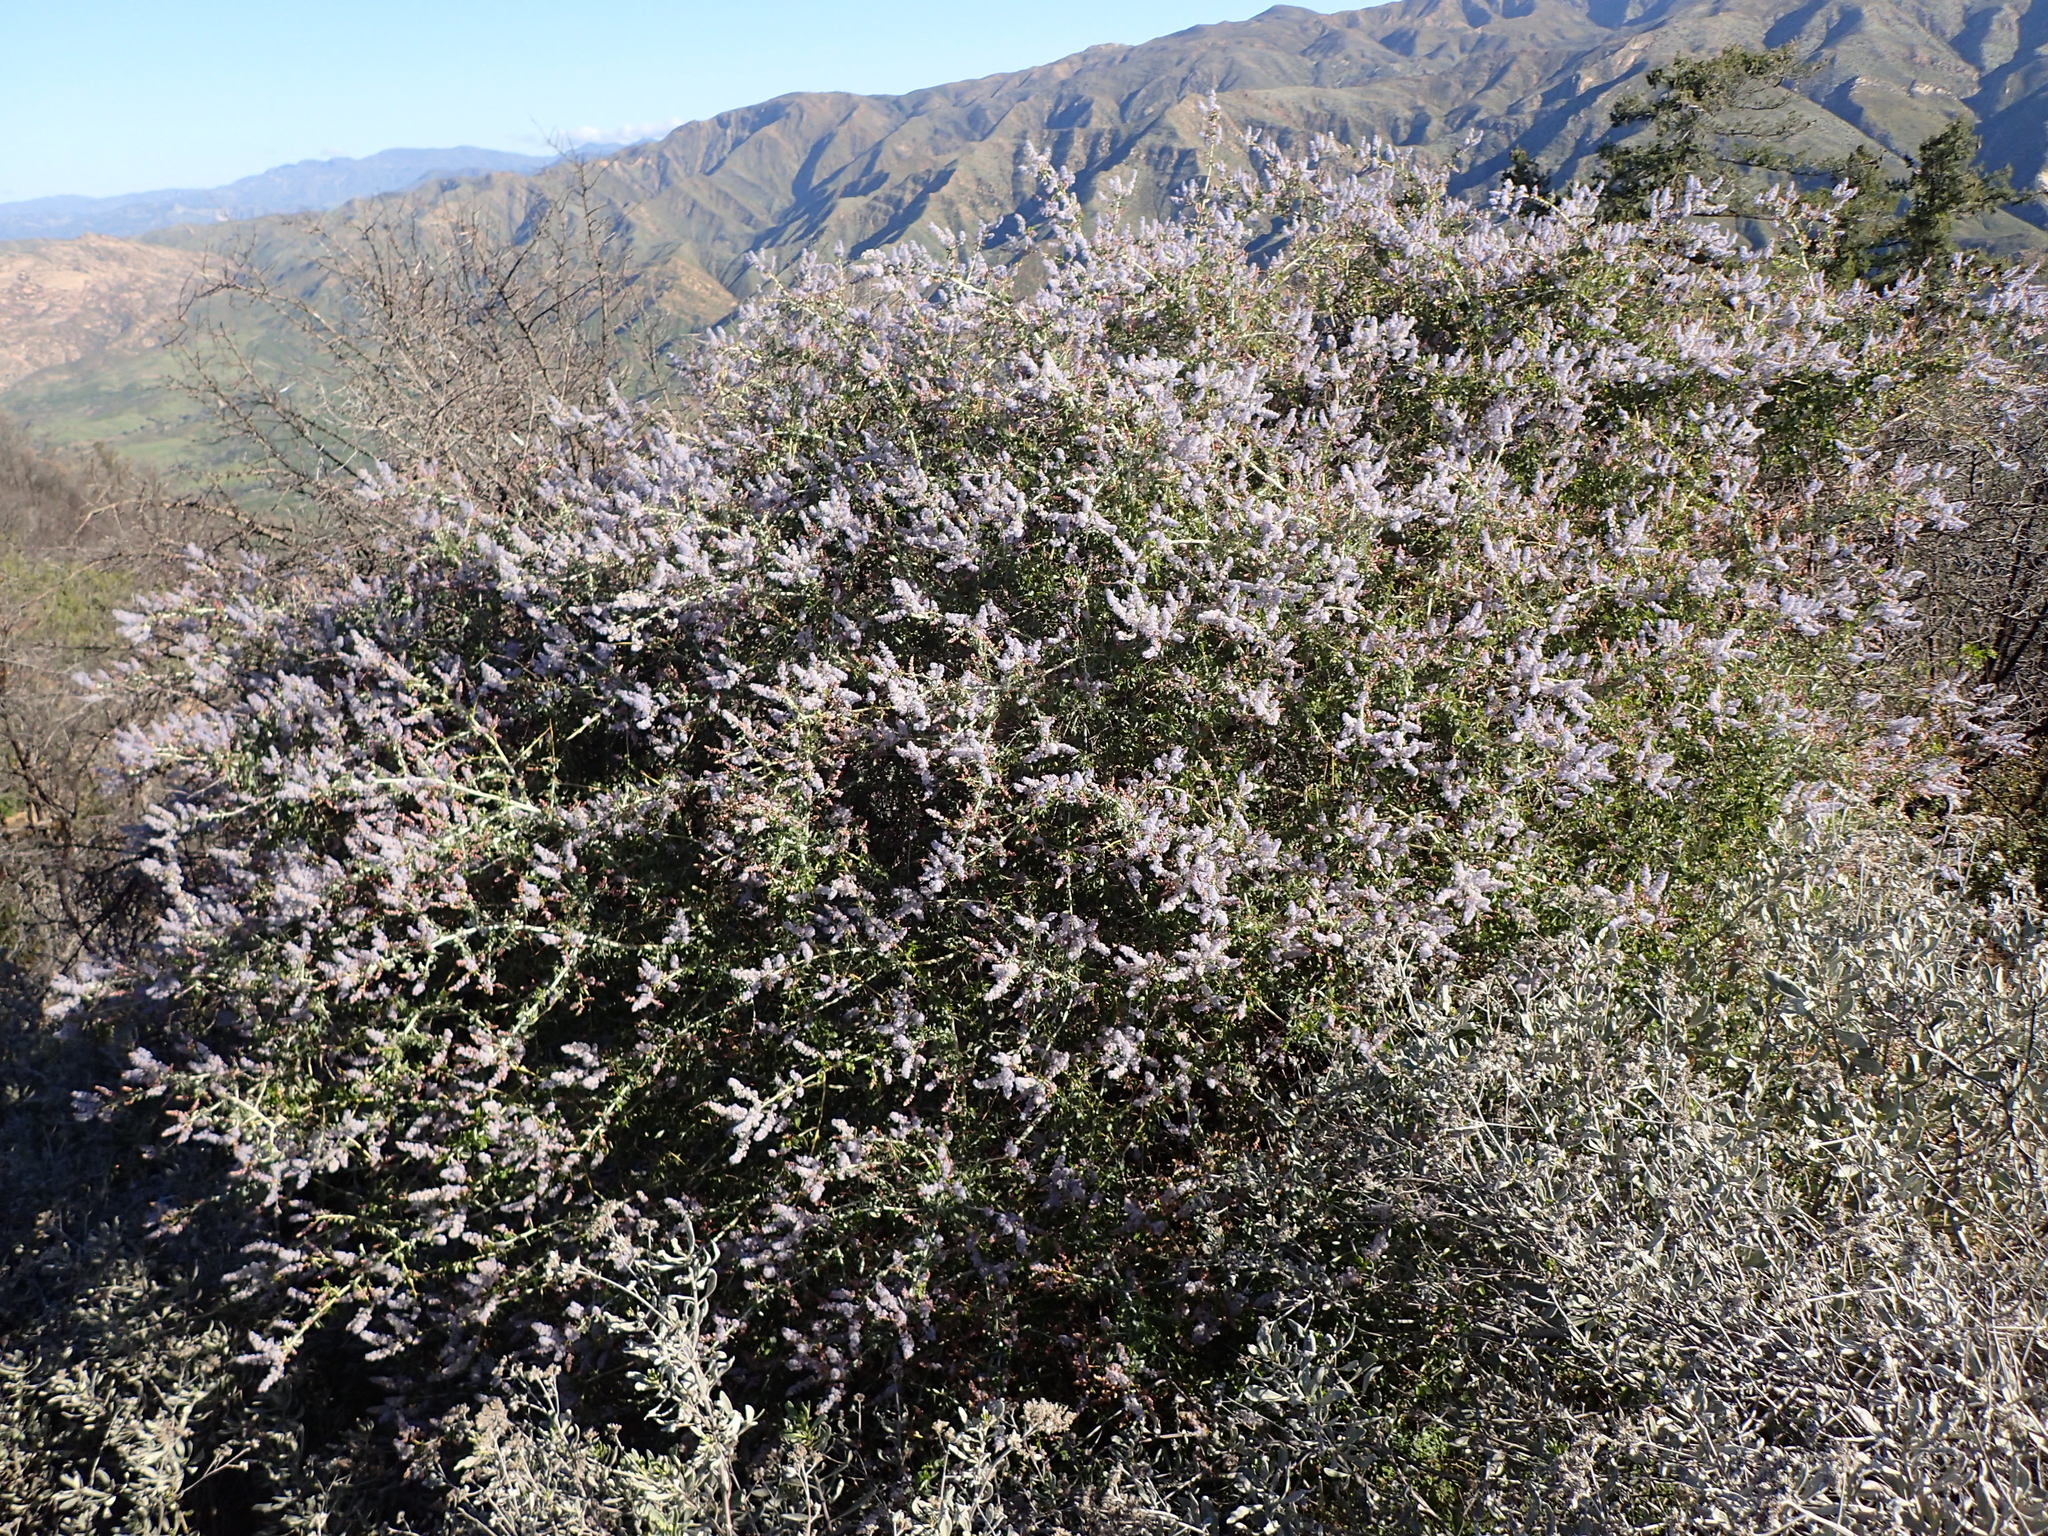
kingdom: Plantae
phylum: Tracheophyta
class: Magnoliopsida
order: Rosales
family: Rhamnaceae
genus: Ceanothus
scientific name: Ceanothus leucodermis
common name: Chaparral whitethorn
